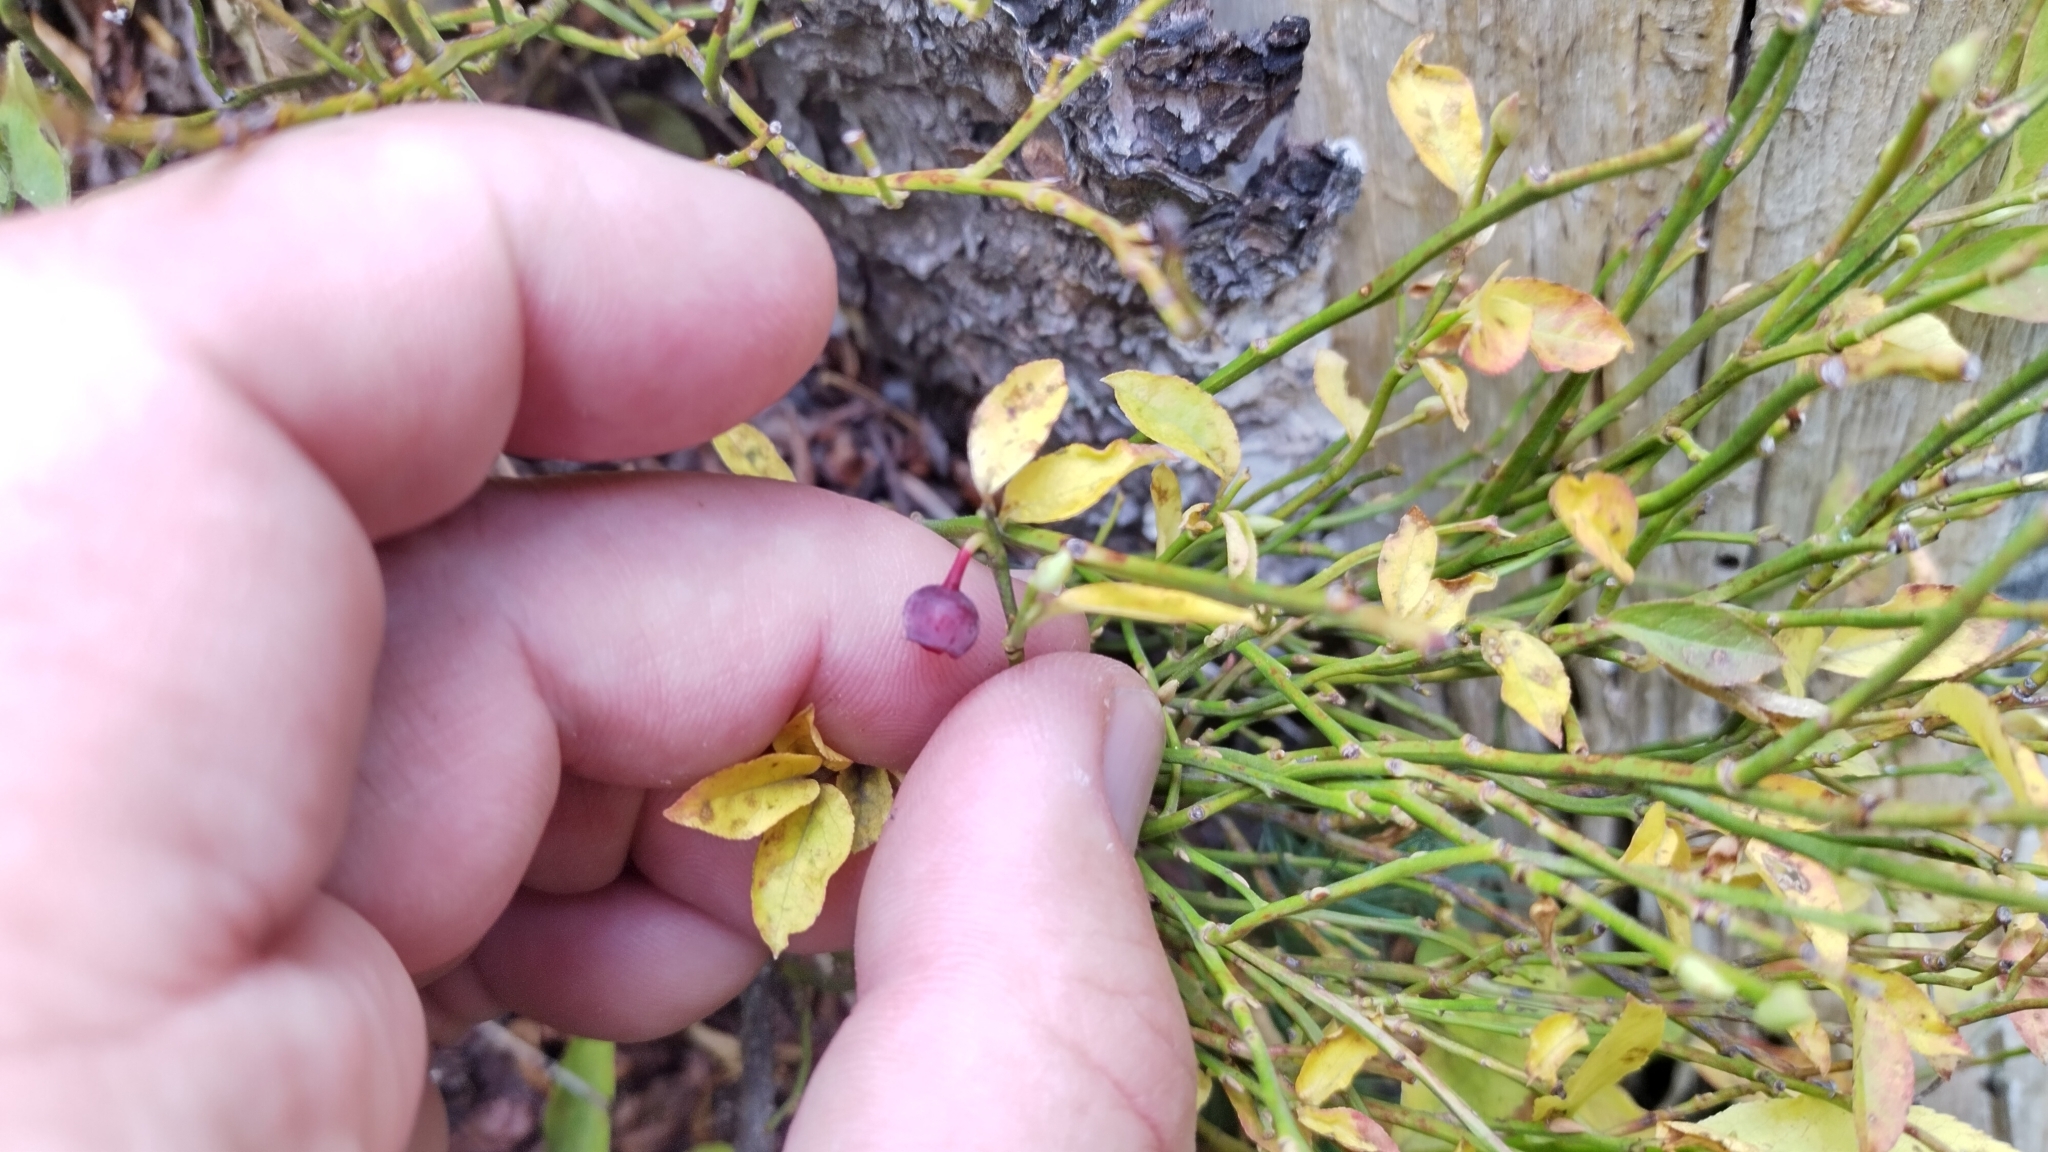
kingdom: Plantae
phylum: Tracheophyta
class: Magnoliopsida
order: Ericales
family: Ericaceae
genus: Vaccinium
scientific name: Vaccinium scoparium
